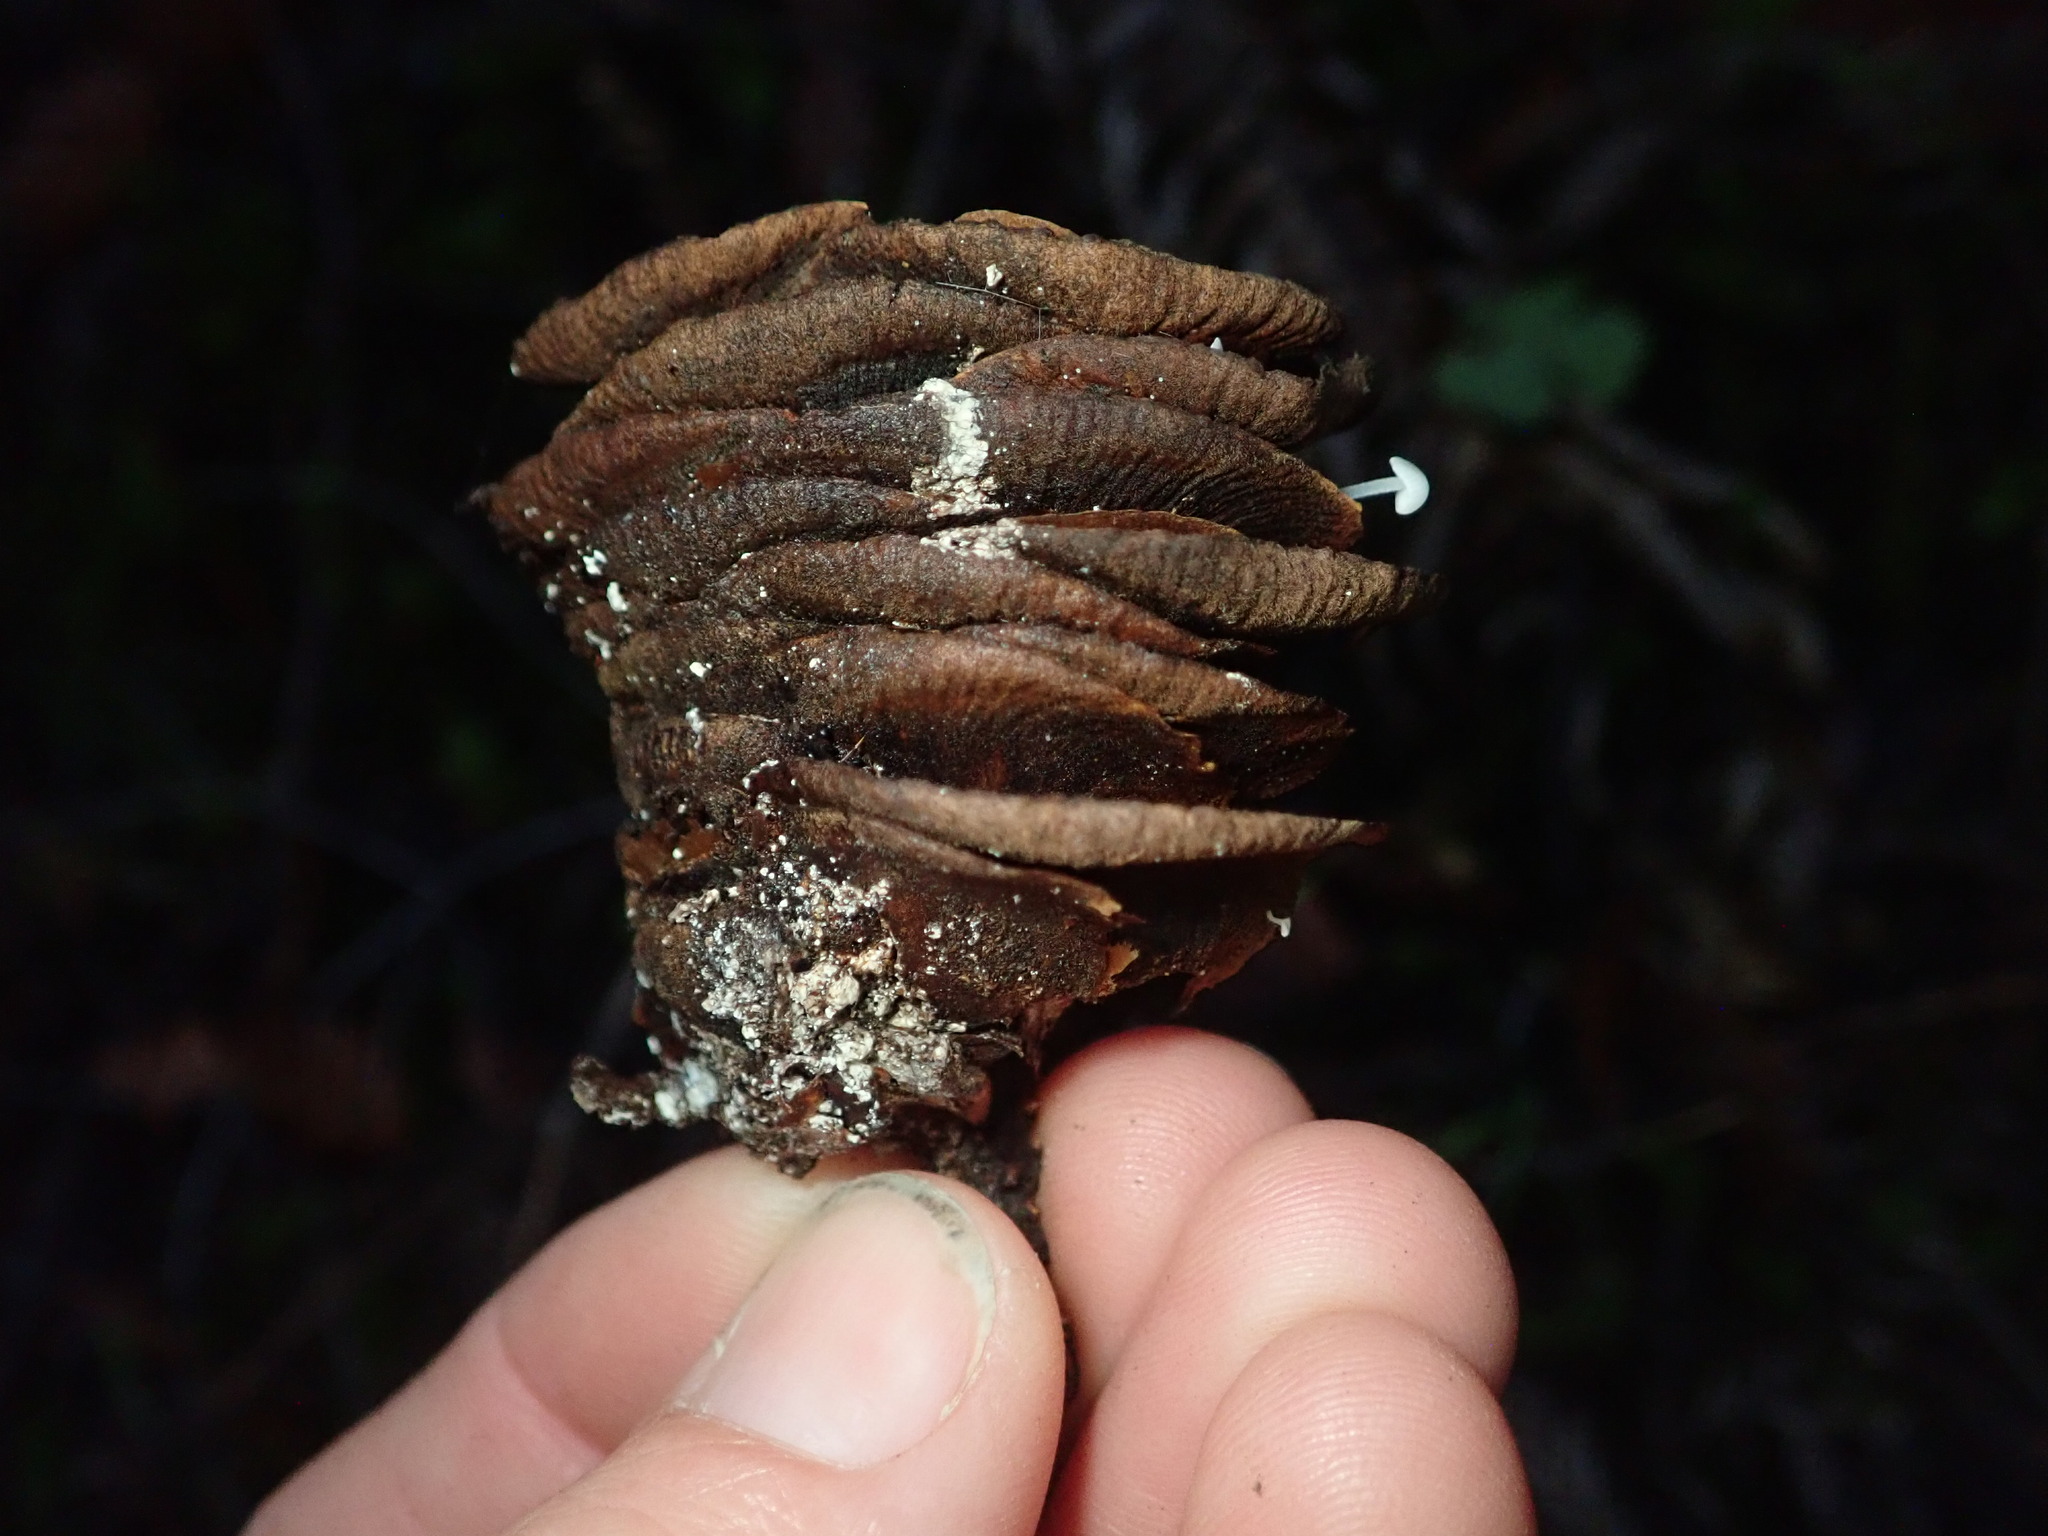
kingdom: Plantae
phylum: Tracheophyta
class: Pinopsida
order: Pinales
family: Pinaceae
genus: Abies
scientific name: Abies grandis
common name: Giant fir
